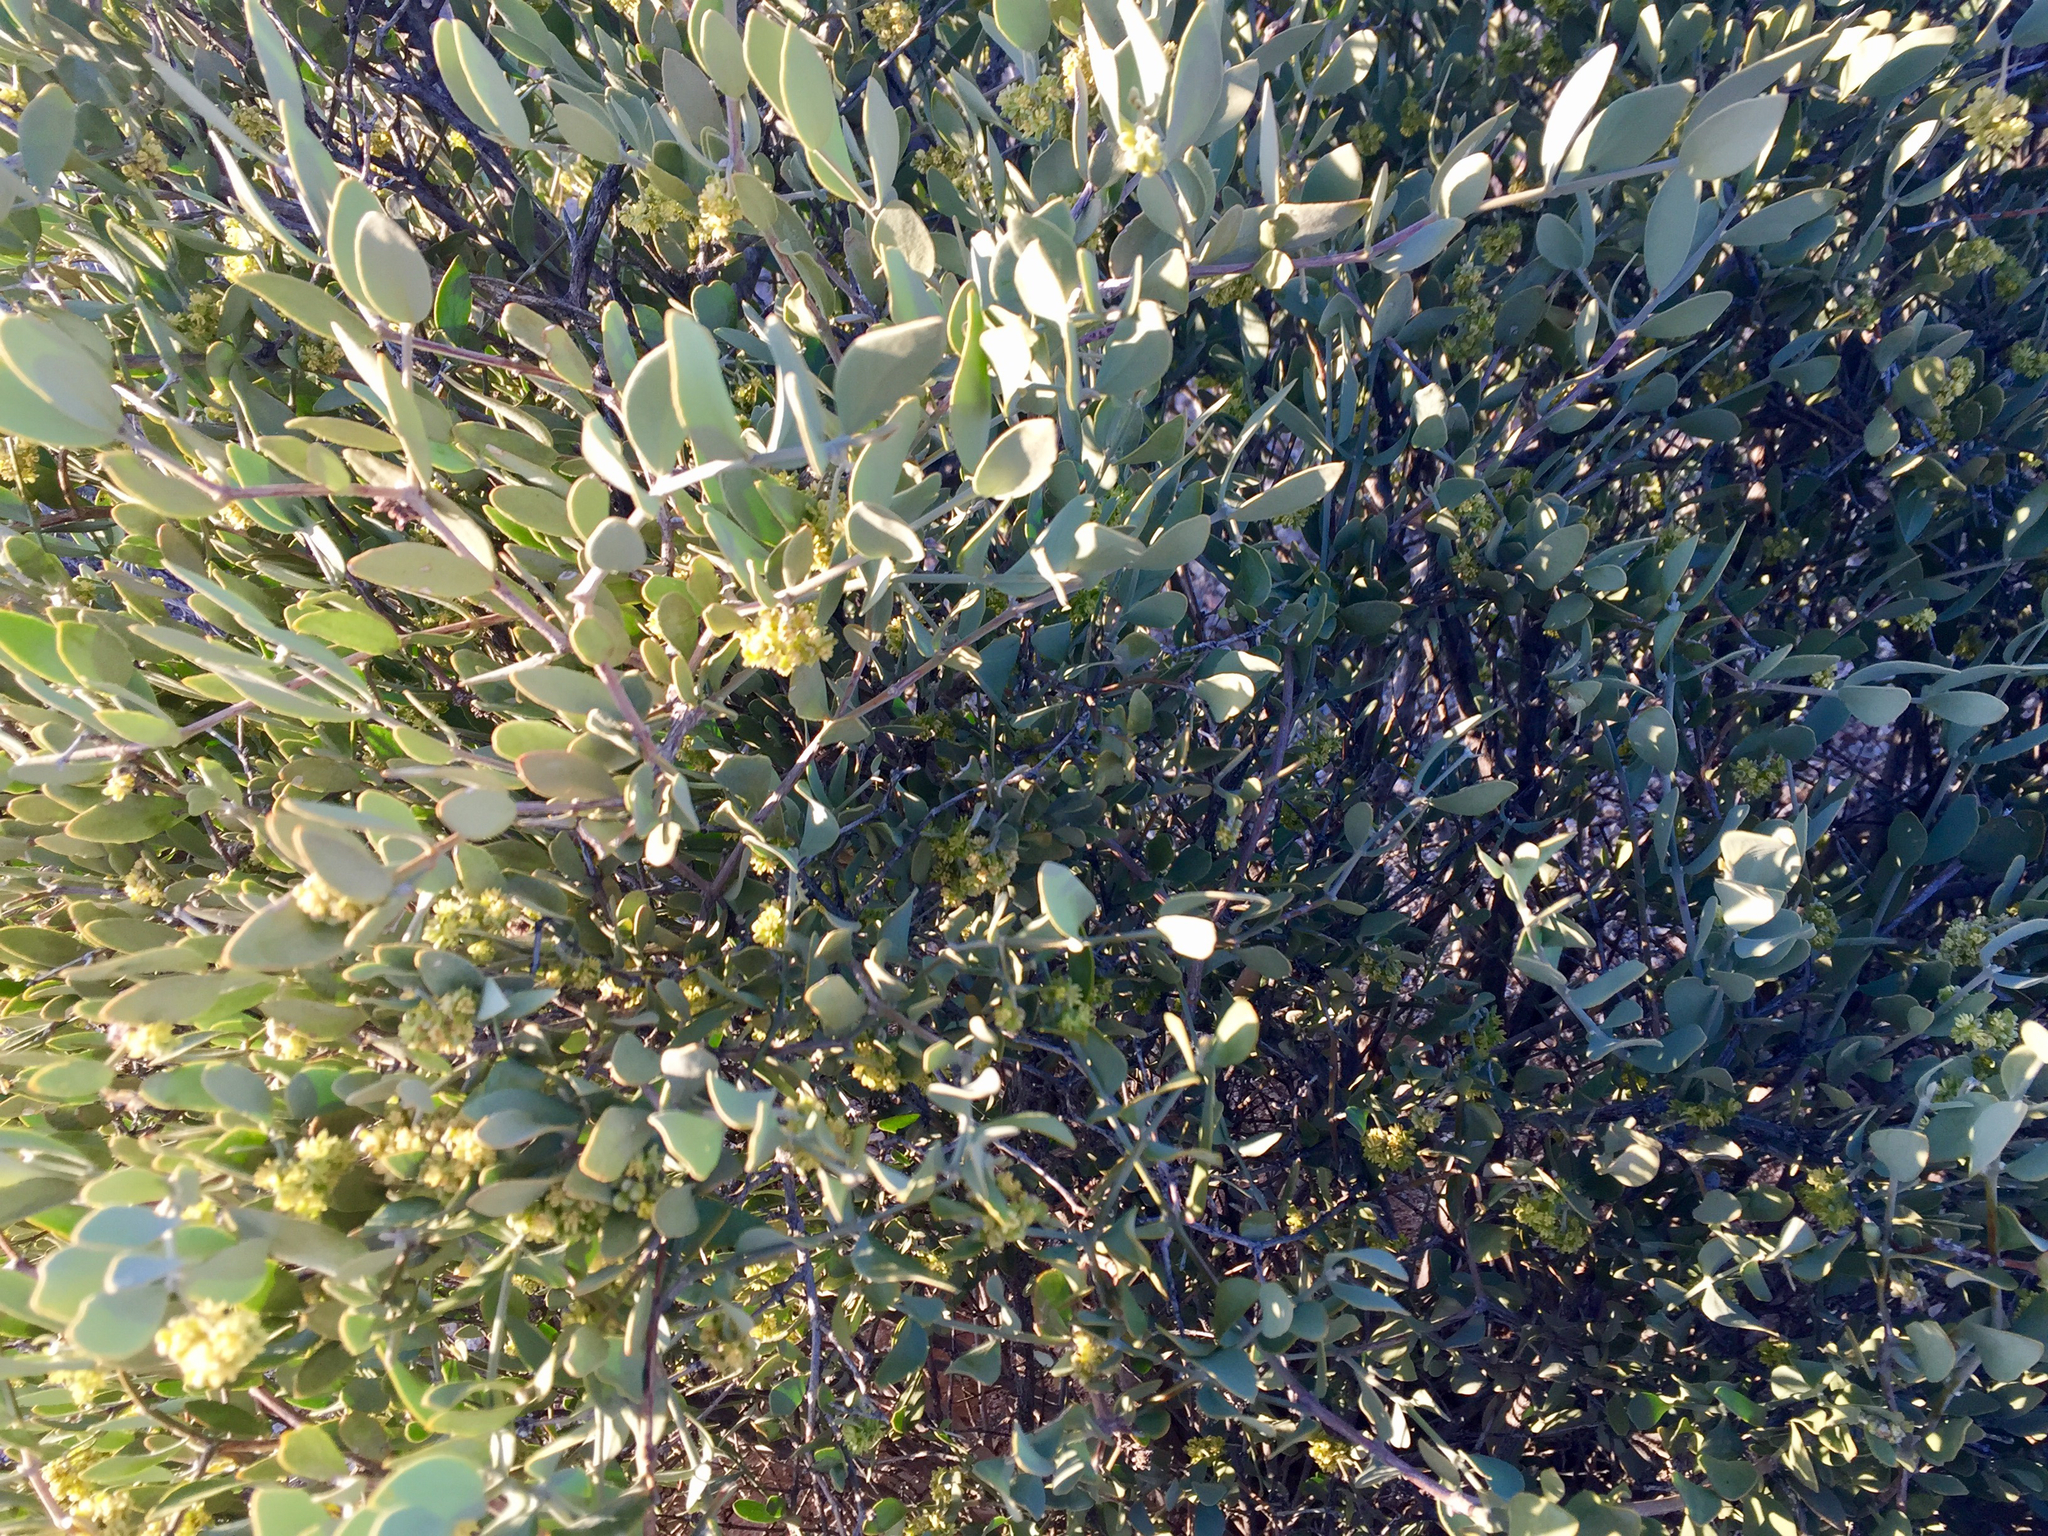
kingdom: Plantae
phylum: Tracheophyta
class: Magnoliopsida
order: Caryophyllales
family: Simmondsiaceae
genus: Simmondsia
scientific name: Simmondsia chinensis
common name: Jojoba
